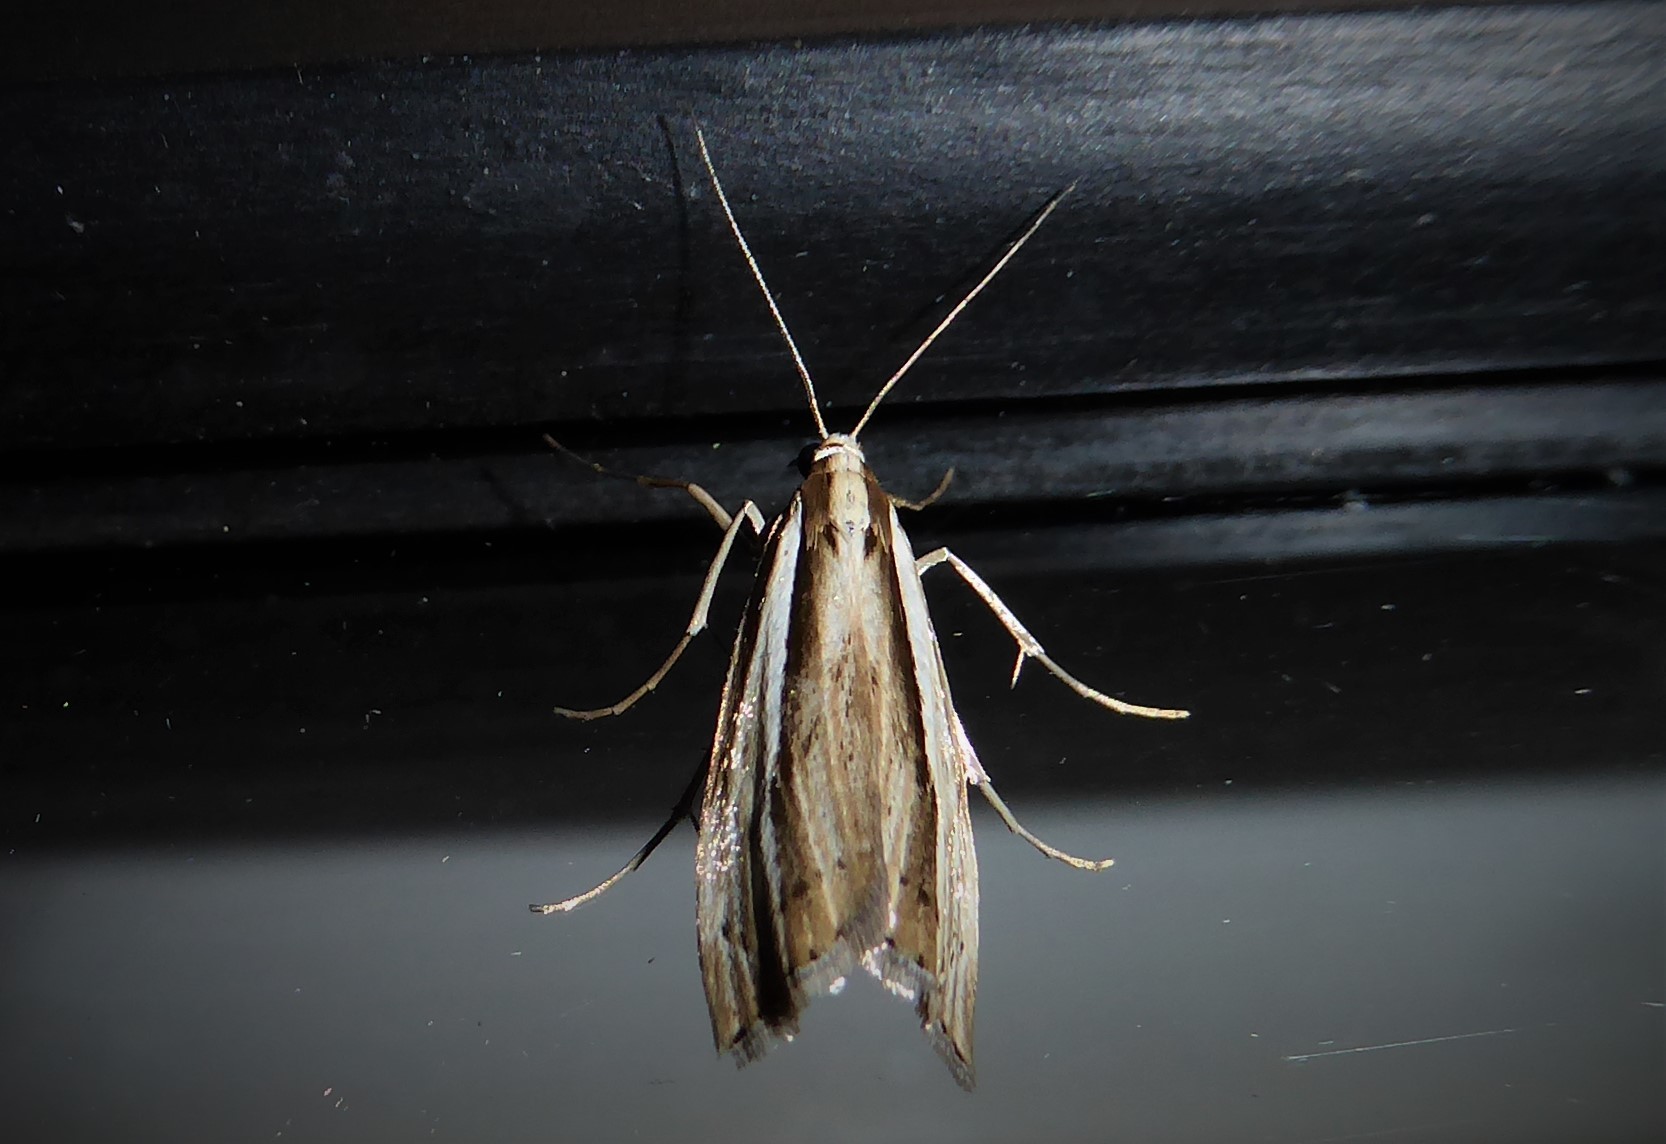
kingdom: Animalia
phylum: Arthropoda
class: Insecta
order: Lepidoptera
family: Crambidae
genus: Orocrambus
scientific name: Orocrambus ramosellus
